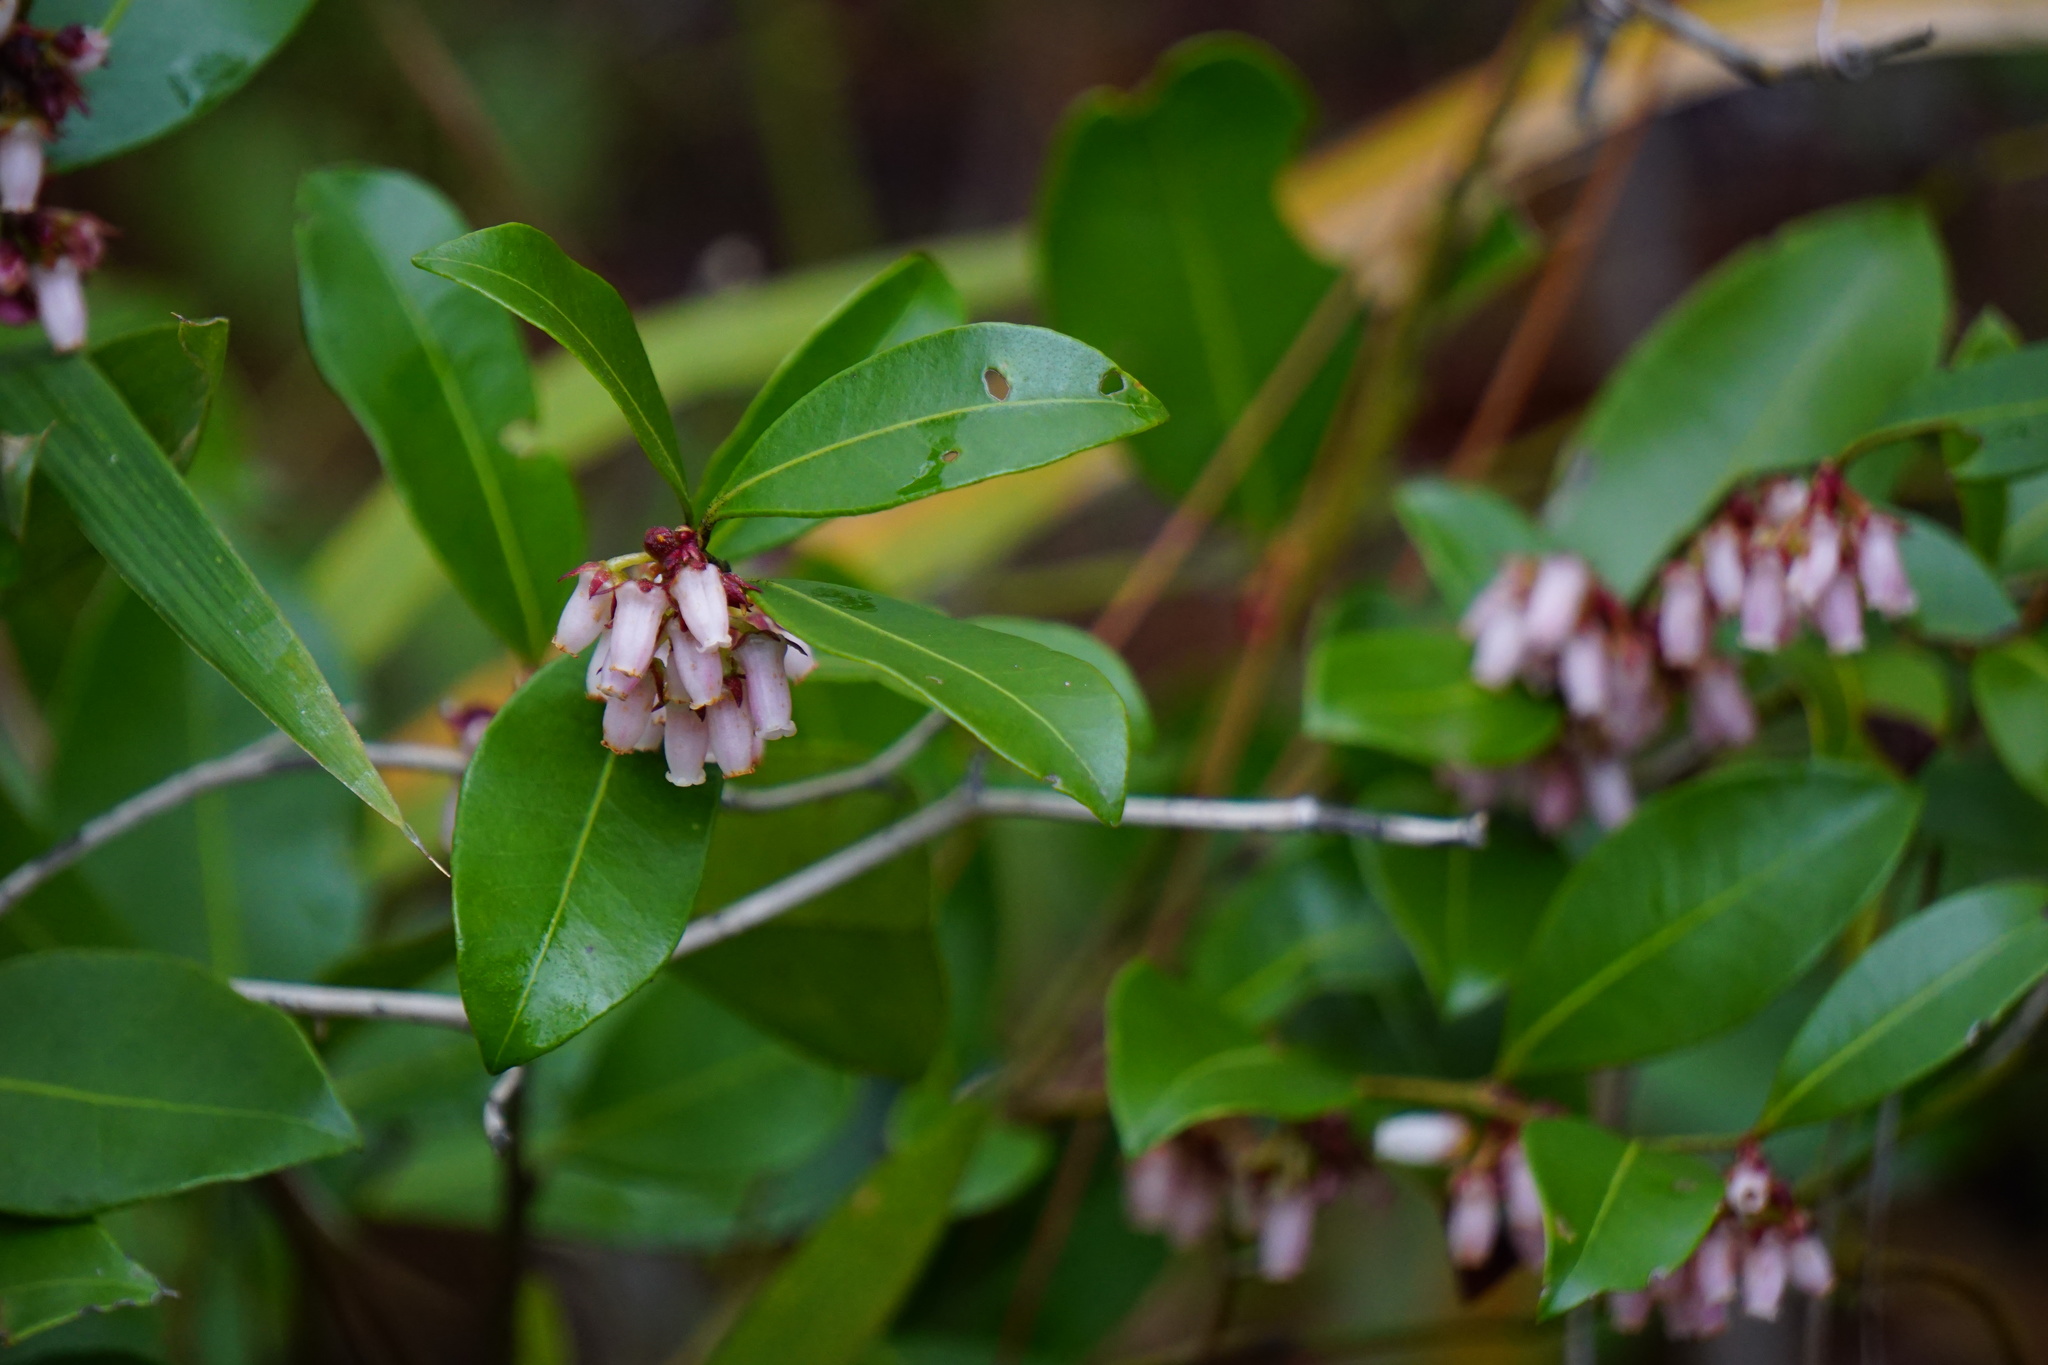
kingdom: Plantae
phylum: Tracheophyta
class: Magnoliopsida
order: Ericales
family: Ericaceae
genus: Lyonia
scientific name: Lyonia lucida
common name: Fetterbush
